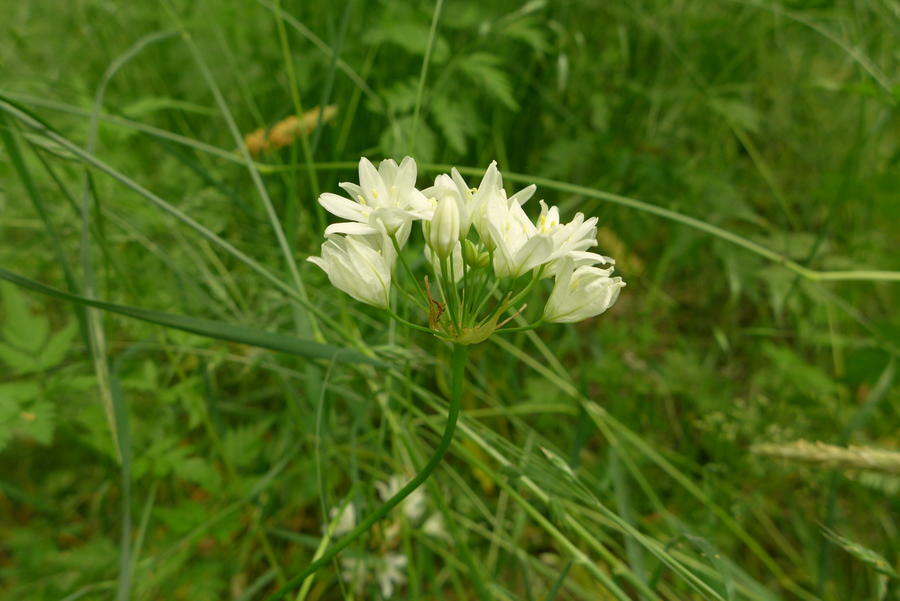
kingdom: Plantae
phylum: Tracheophyta
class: Liliopsida
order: Asparagales
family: Asparagaceae
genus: Triteleia
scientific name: Triteleia hyacinthina
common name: White brodiaea
